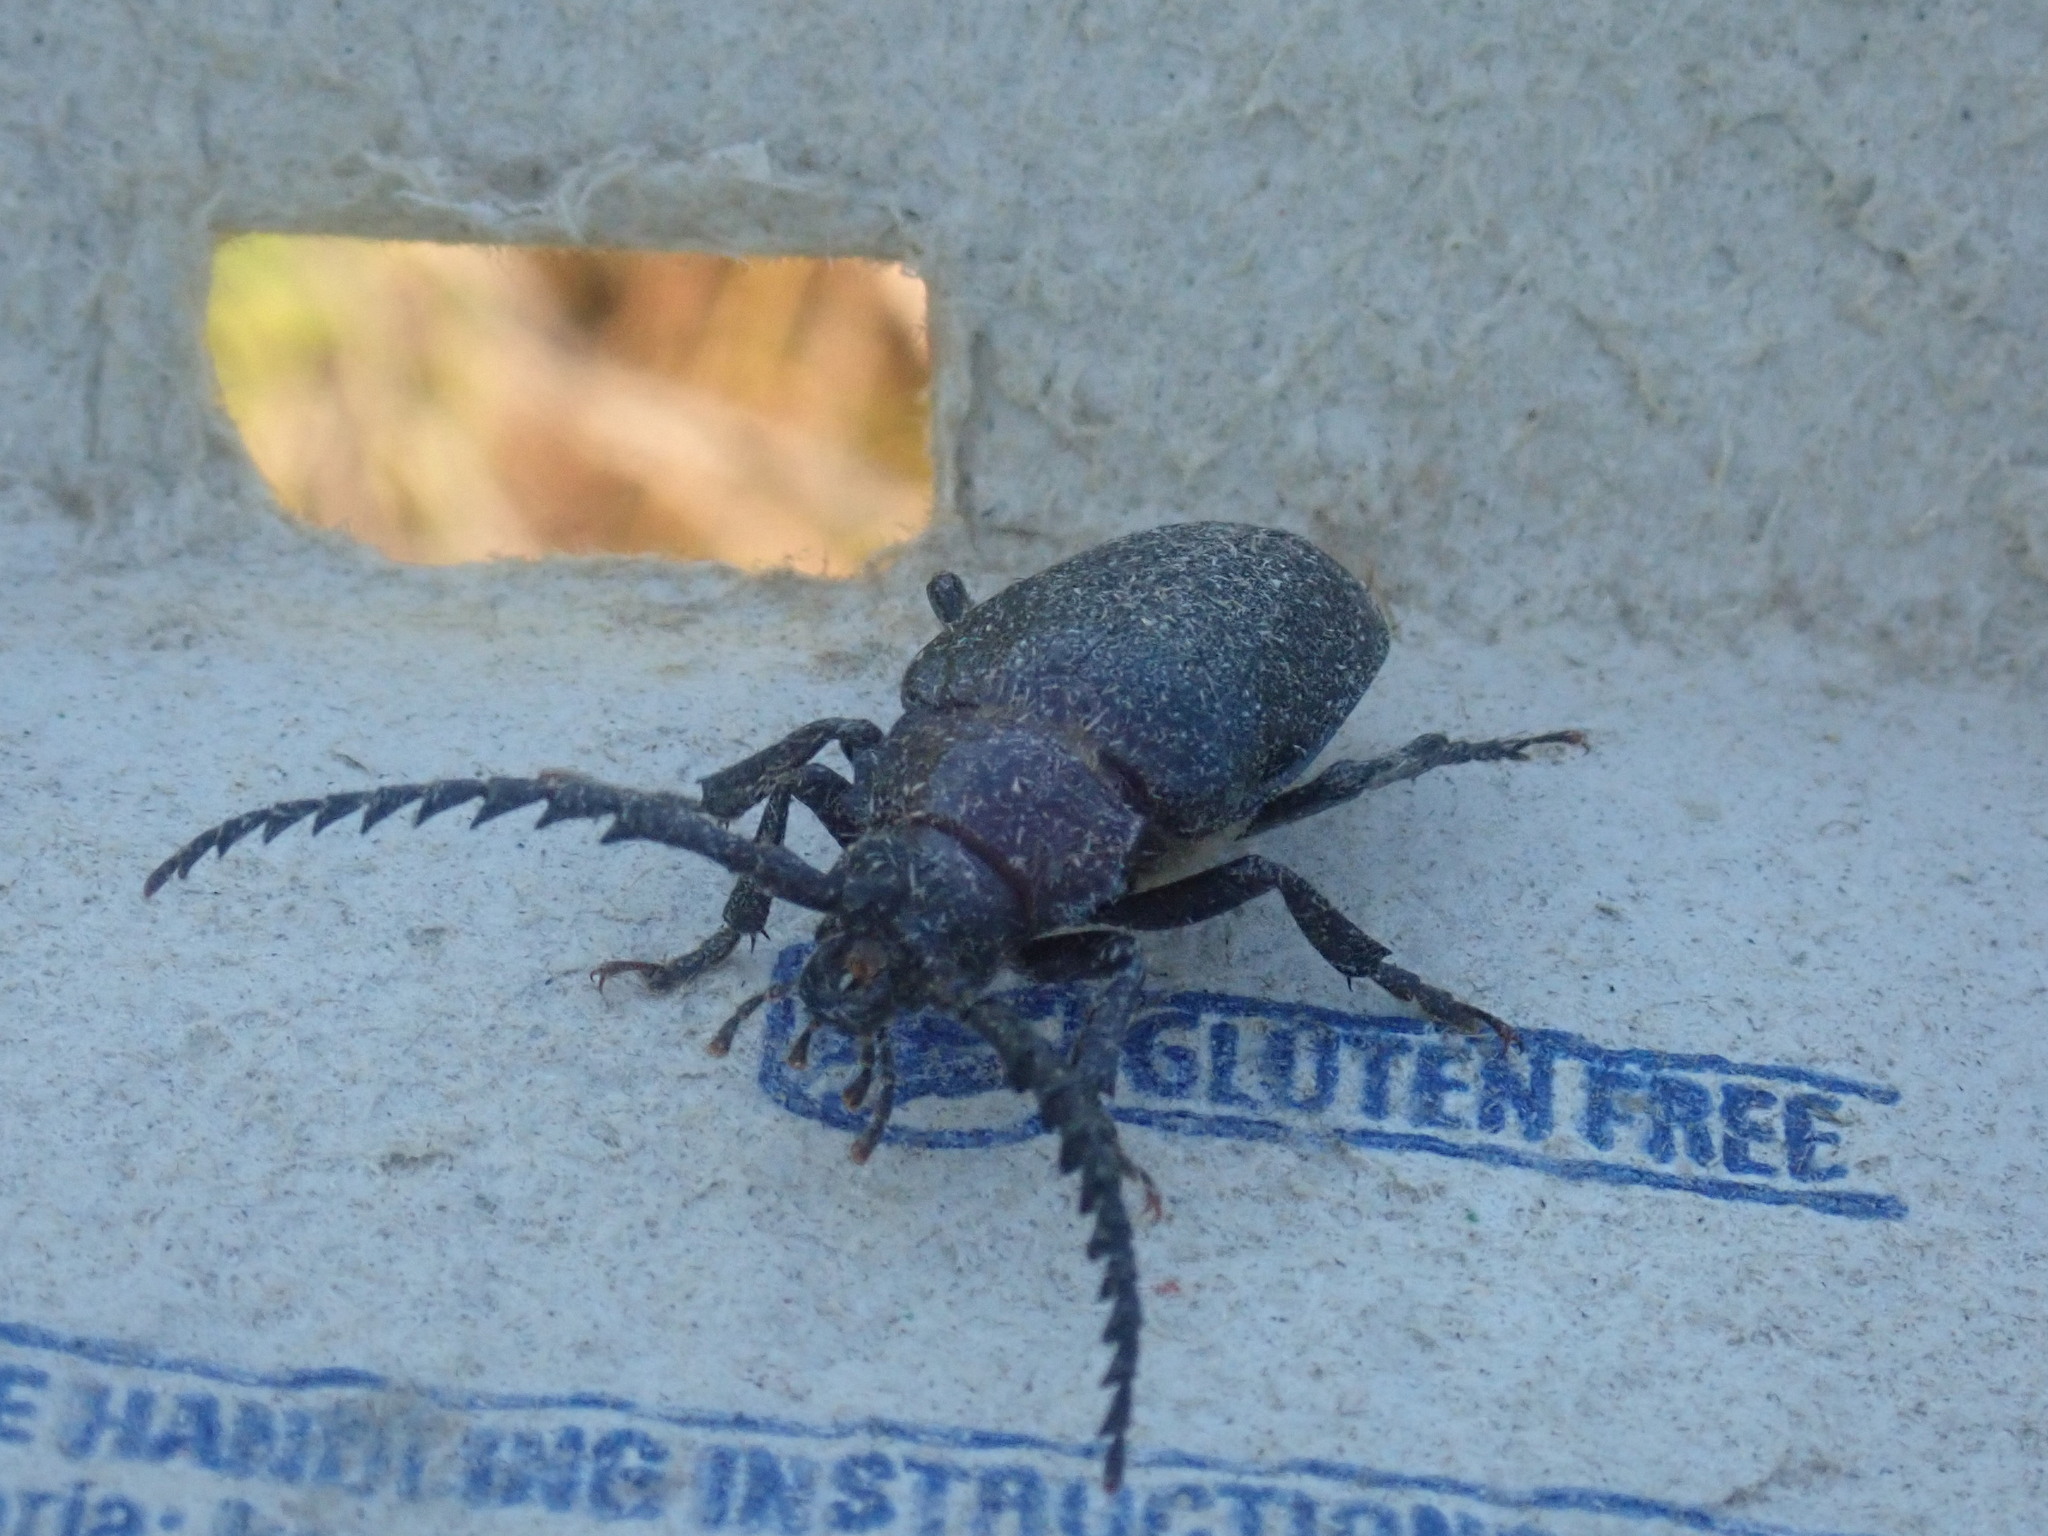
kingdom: Animalia
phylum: Arthropoda
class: Insecta
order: Coleoptera
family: Cerambycidae
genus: Prionus
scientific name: Prionus laticollis
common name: Broad necked prionus
